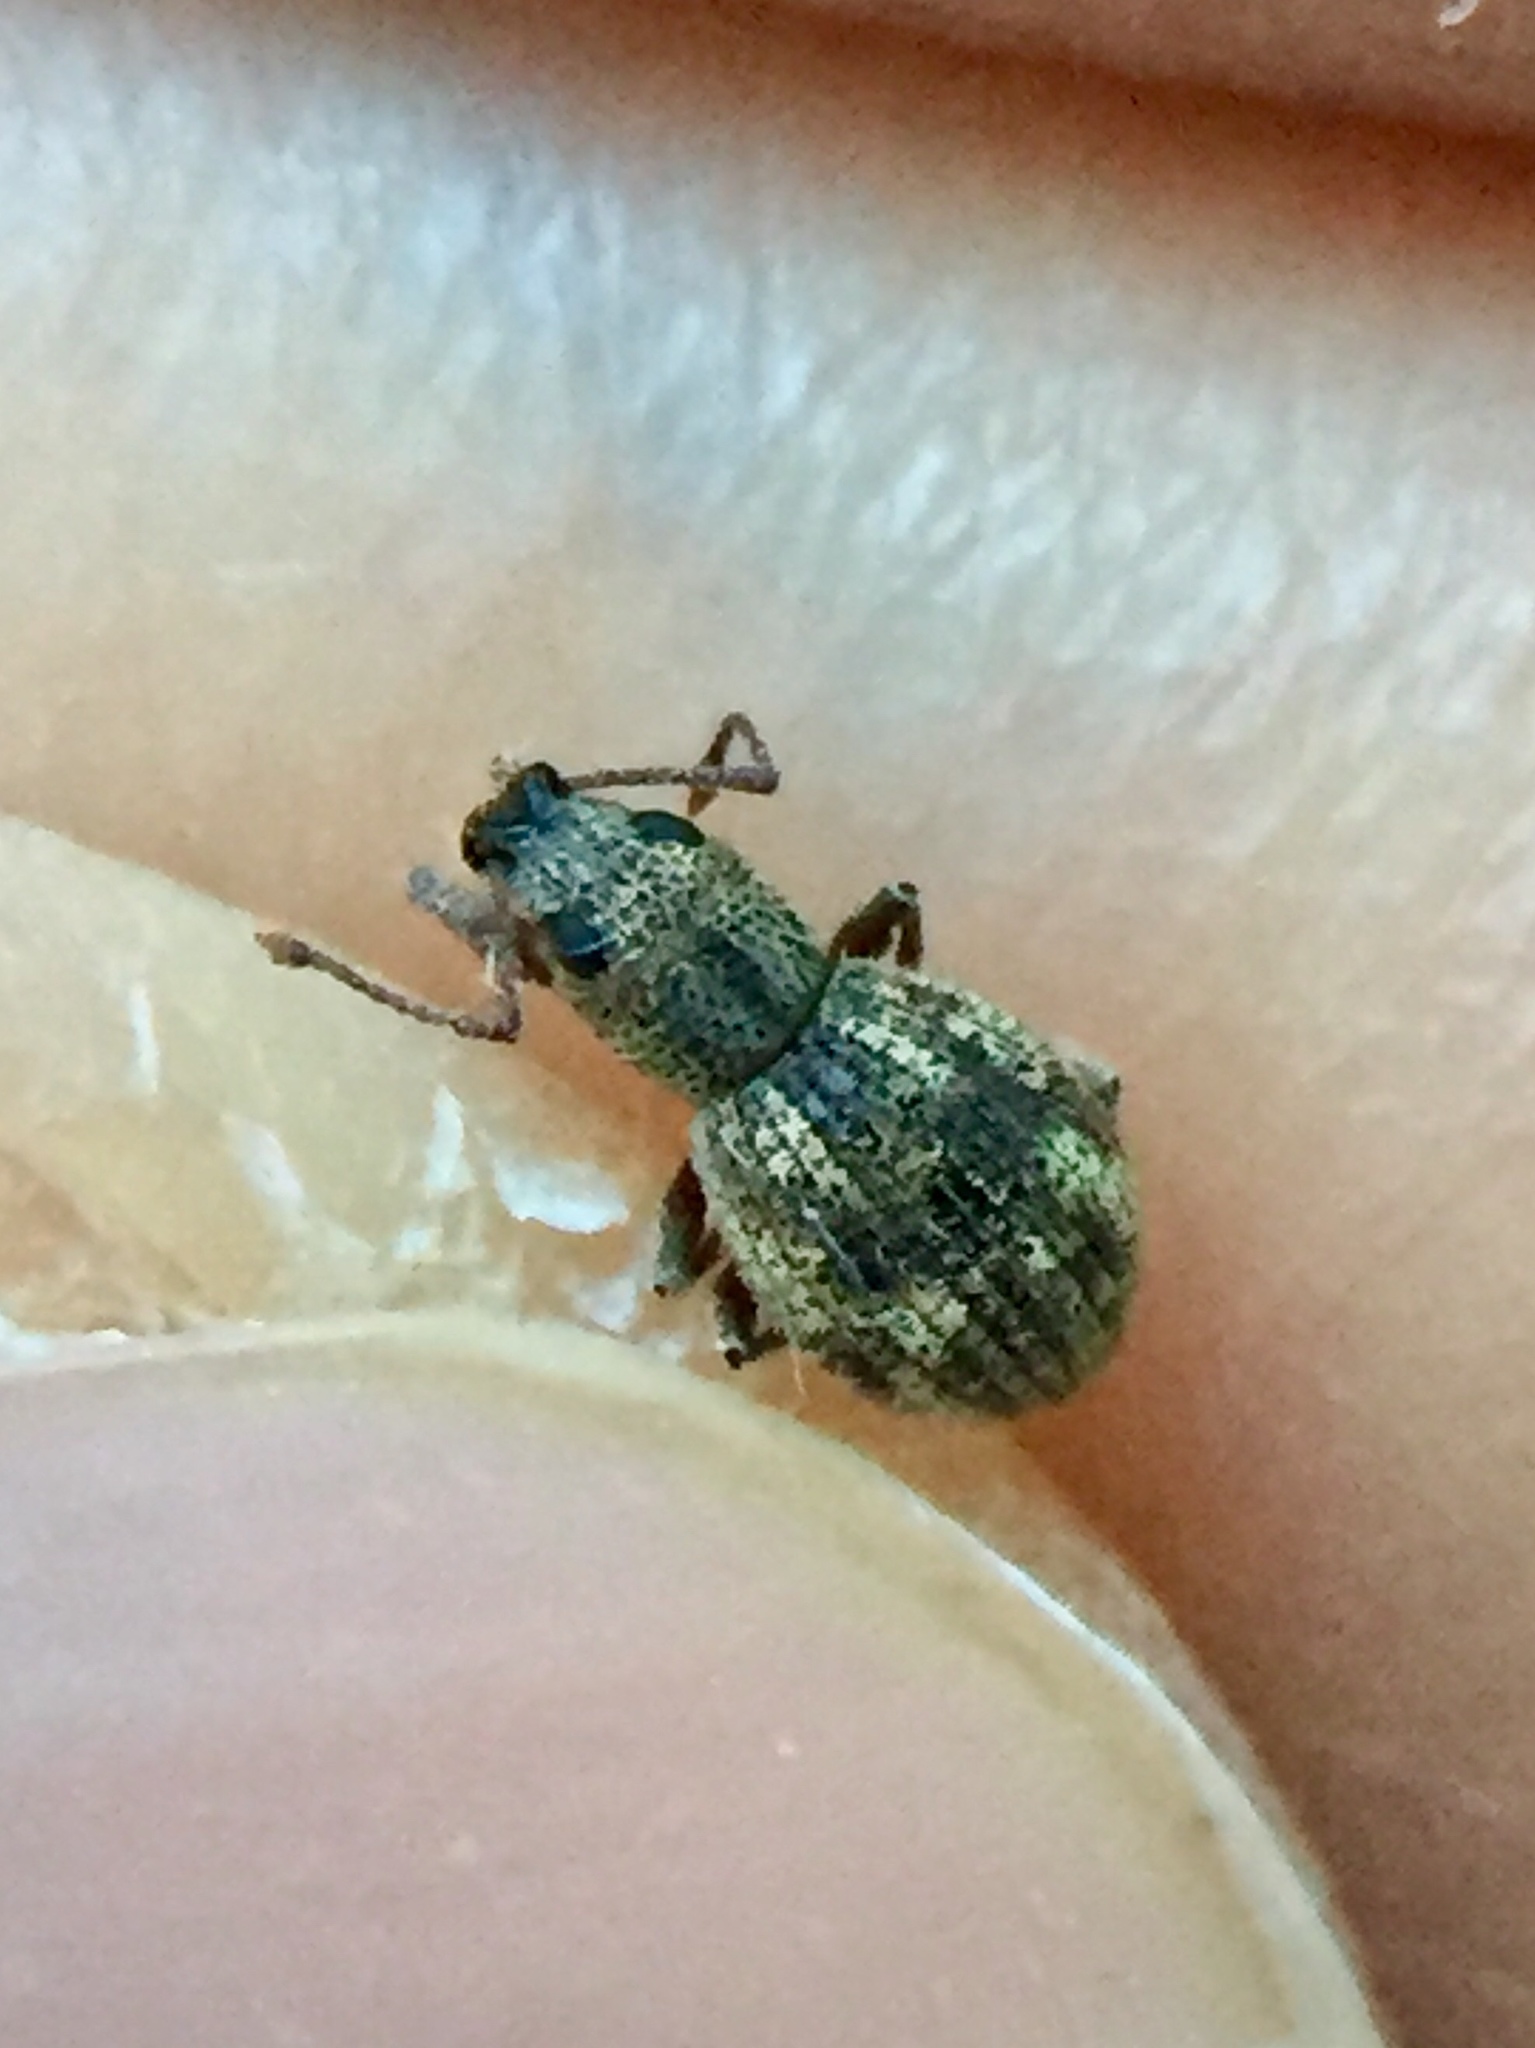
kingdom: Animalia
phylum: Arthropoda
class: Insecta
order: Coleoptera
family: Curculionidae
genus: Calomycterus
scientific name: Calomycterus setarius
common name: Weevil
